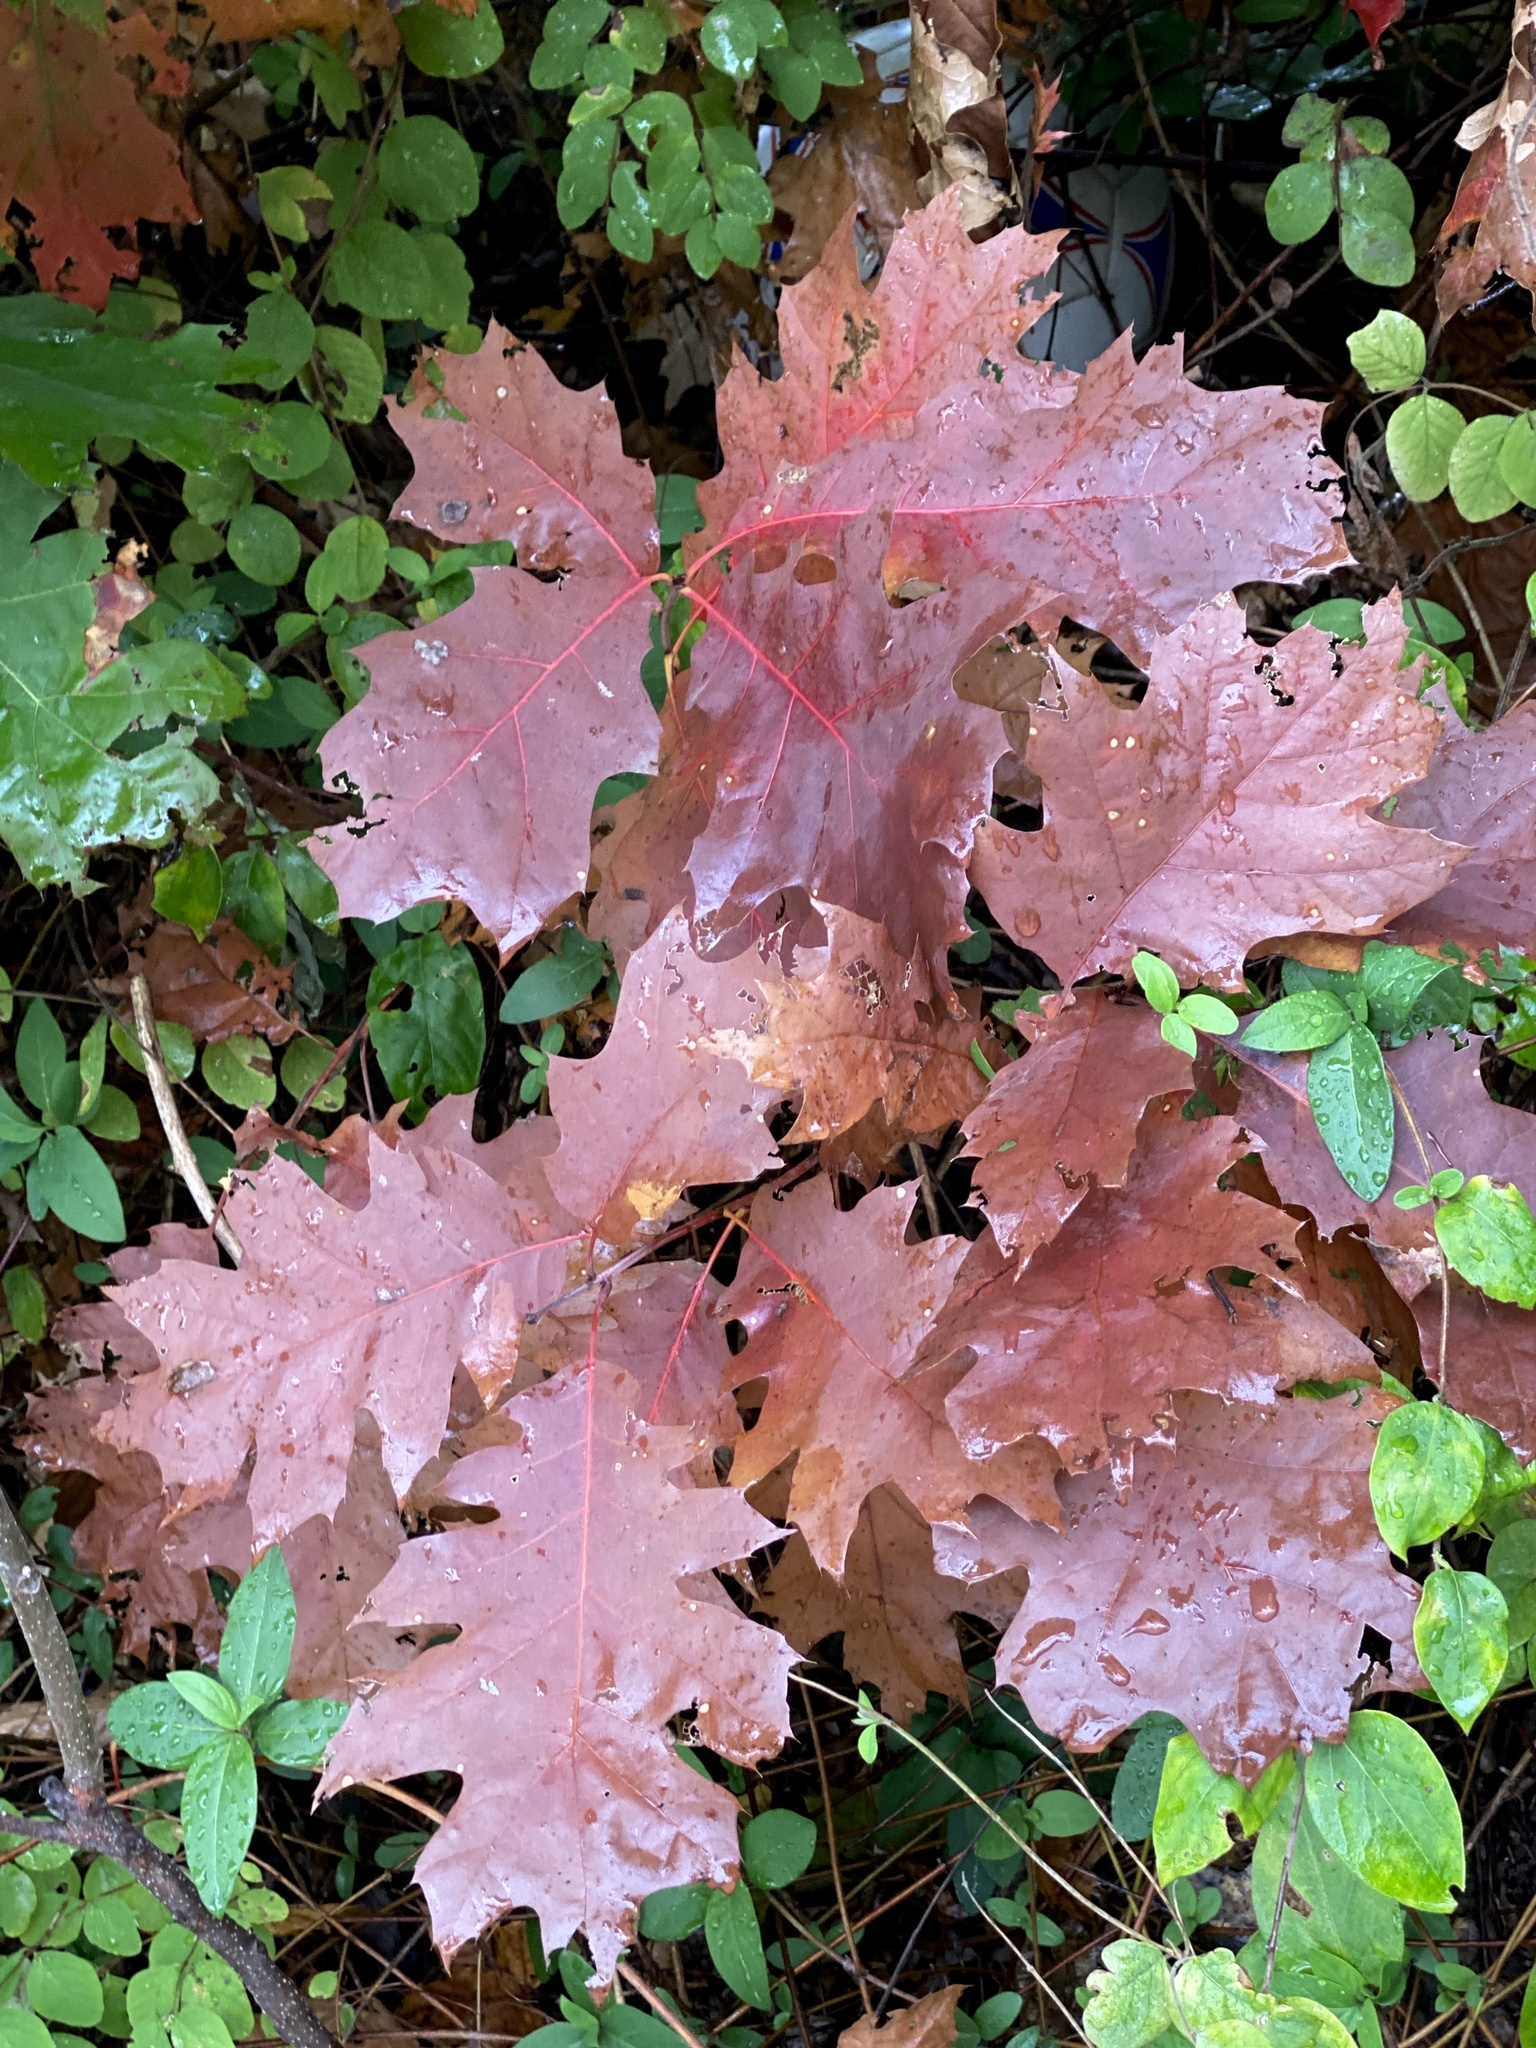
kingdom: Plantae
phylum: Tracheophyta
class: Magnoliopsida
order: Fagales
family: Fagaceae
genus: Quercus
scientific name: Quercus rubra
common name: Red oak
